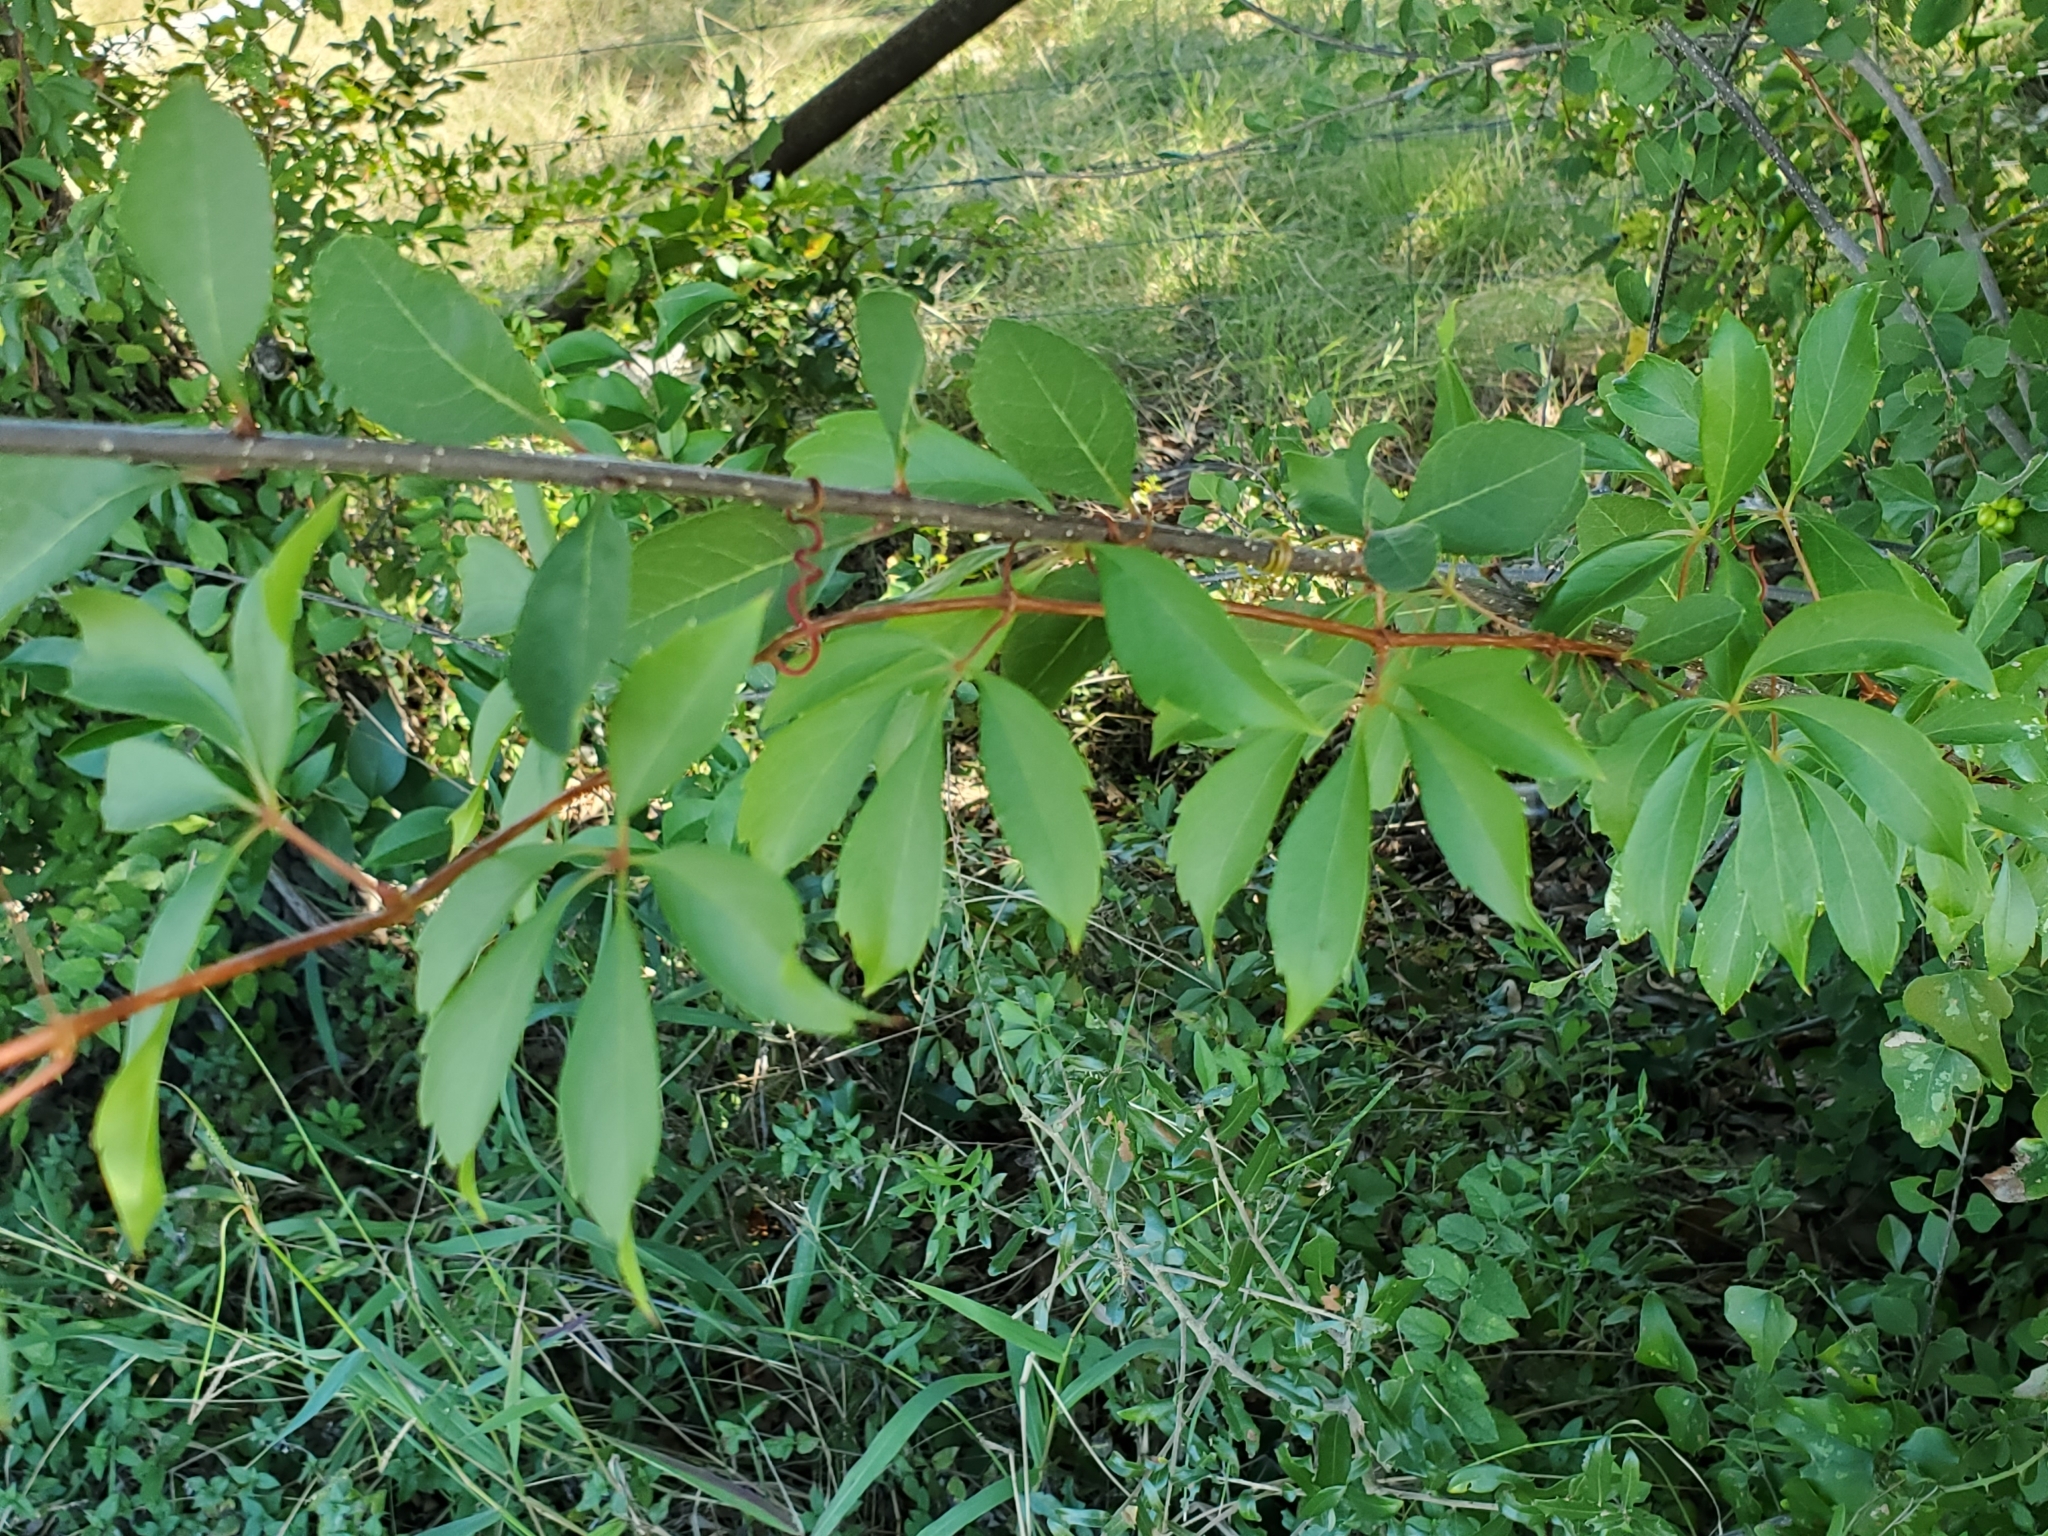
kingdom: Plantae
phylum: Tracheophyta
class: Magnoliopsida
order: Vitales
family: Vitaceae
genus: Parthenocissus
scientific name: Parthenocissus quinquefolia
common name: Virginia-creeper
